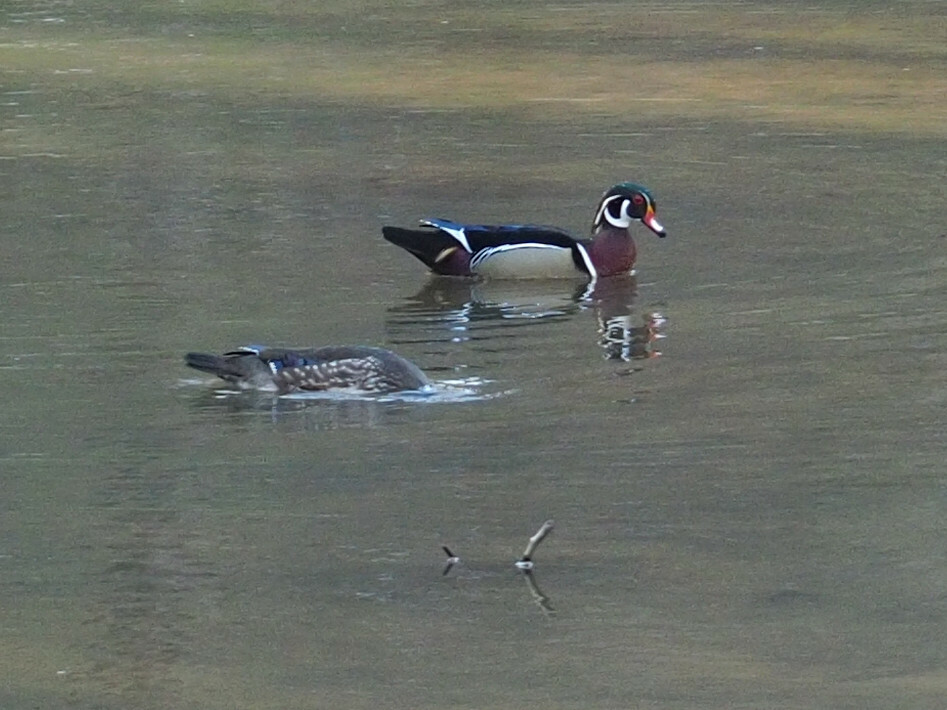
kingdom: Animalia
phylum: Chordata
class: Aves
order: Anseriformes
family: Anatidae
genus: Aix
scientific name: Aix sponsa
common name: Wood duck
